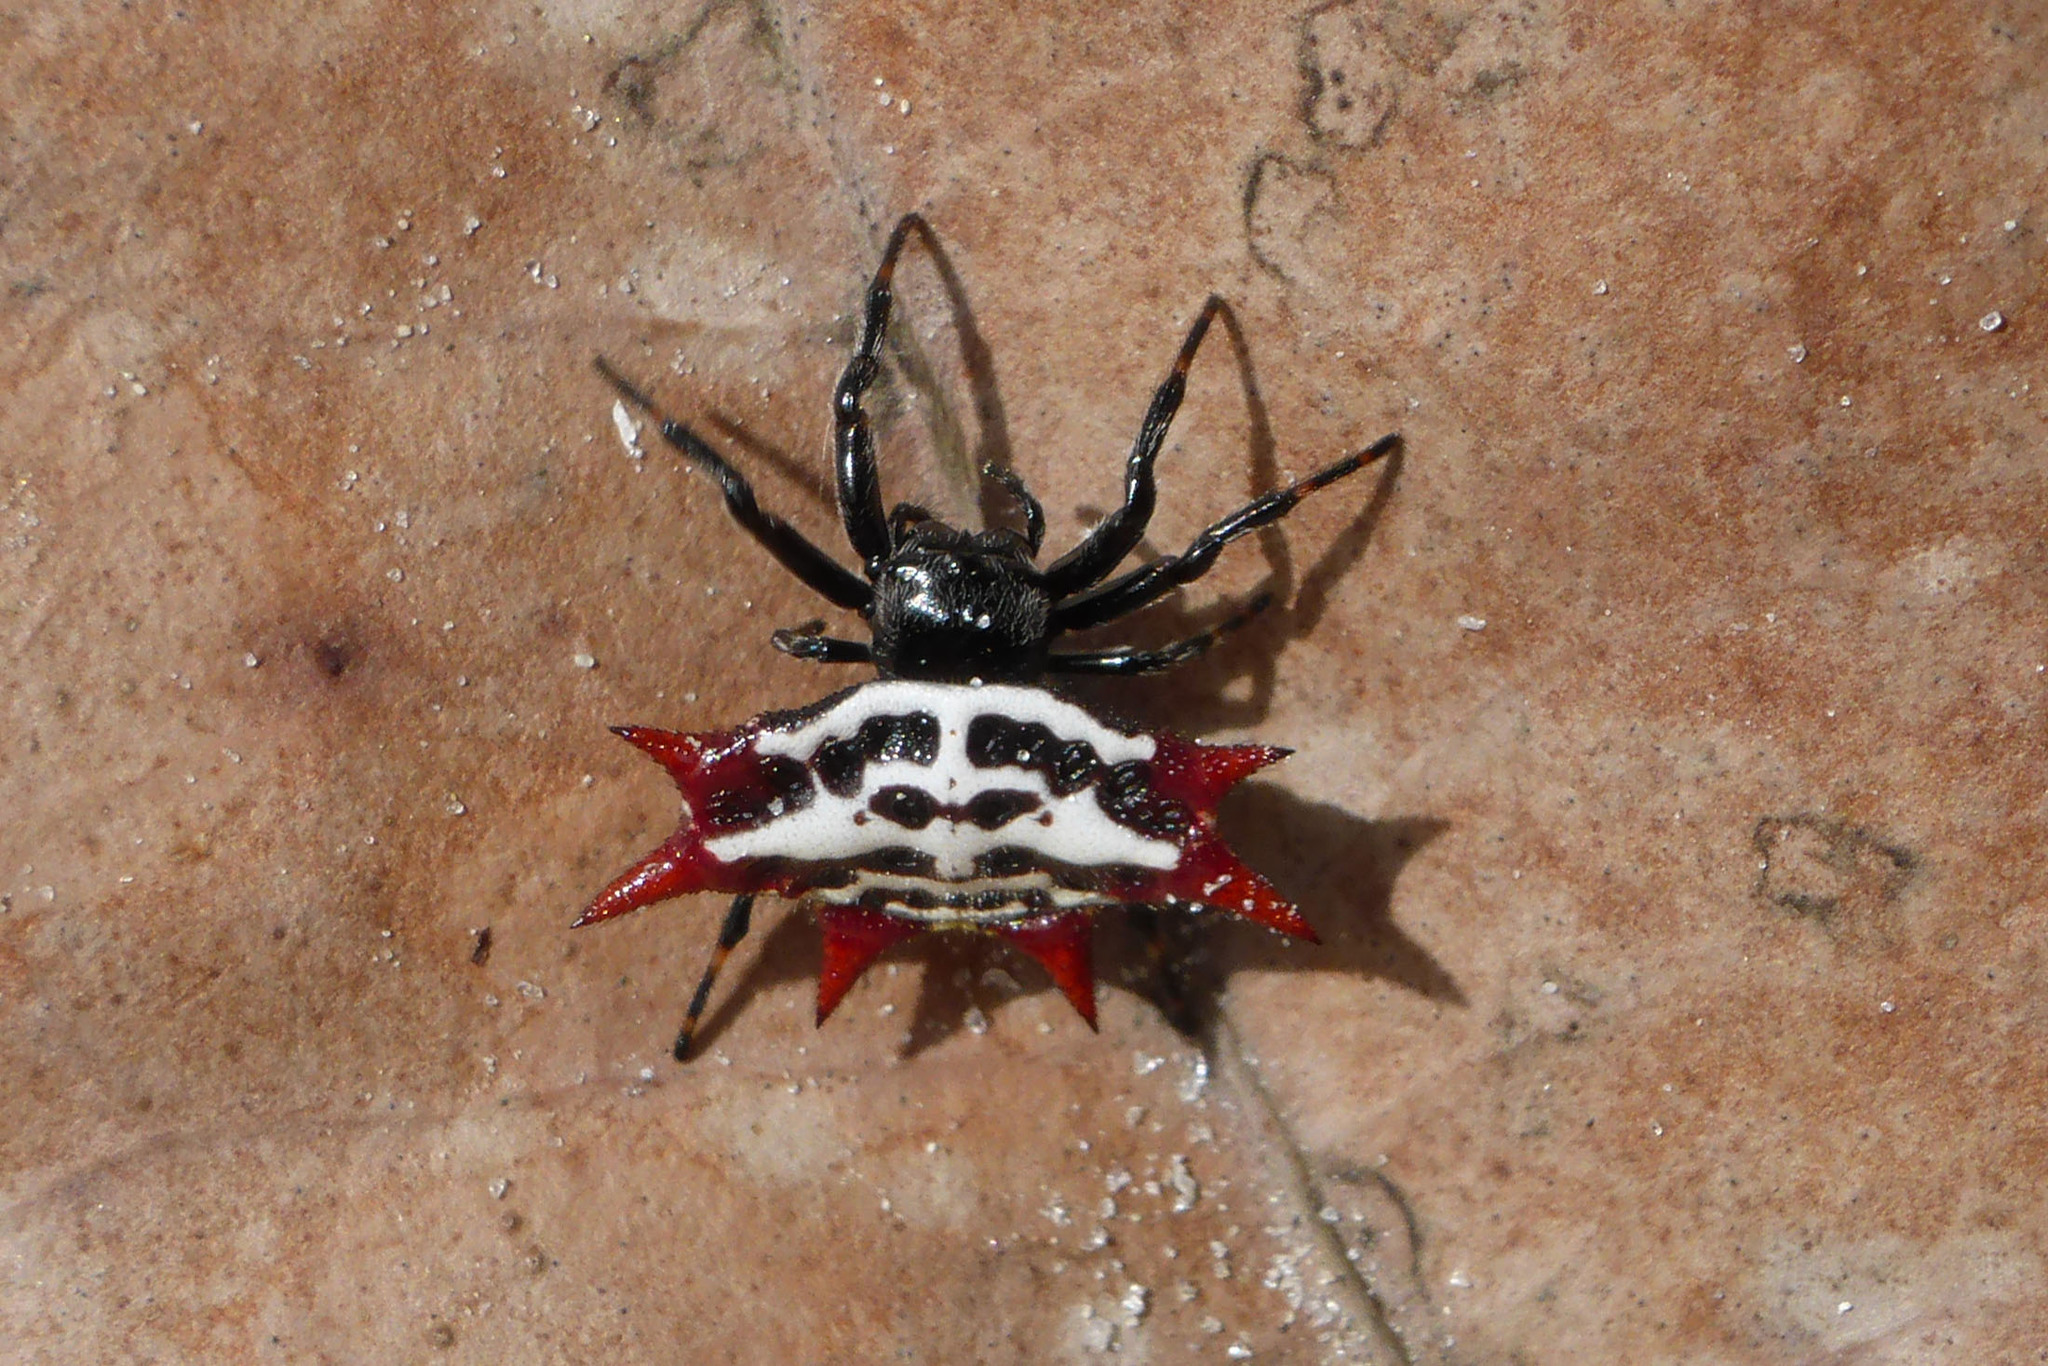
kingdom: Animalia
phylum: Arthropoda
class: Arachnida
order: Araneae
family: Araneidae
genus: Gasteracantha
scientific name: Gasteracantha cancriformis
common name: Orb weavers
